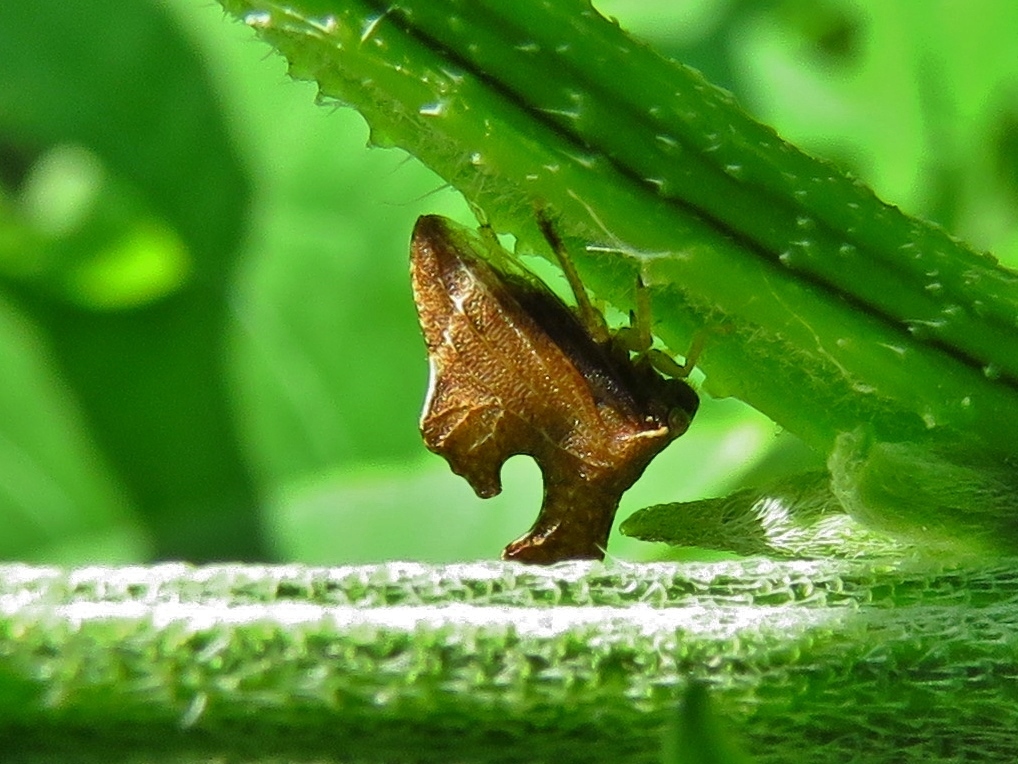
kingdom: Animalia
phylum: Arthropoda
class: Insecta
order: Hemiptera
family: Membracidae
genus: Entylia
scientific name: Entylia carinata
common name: Keeled treehopper
